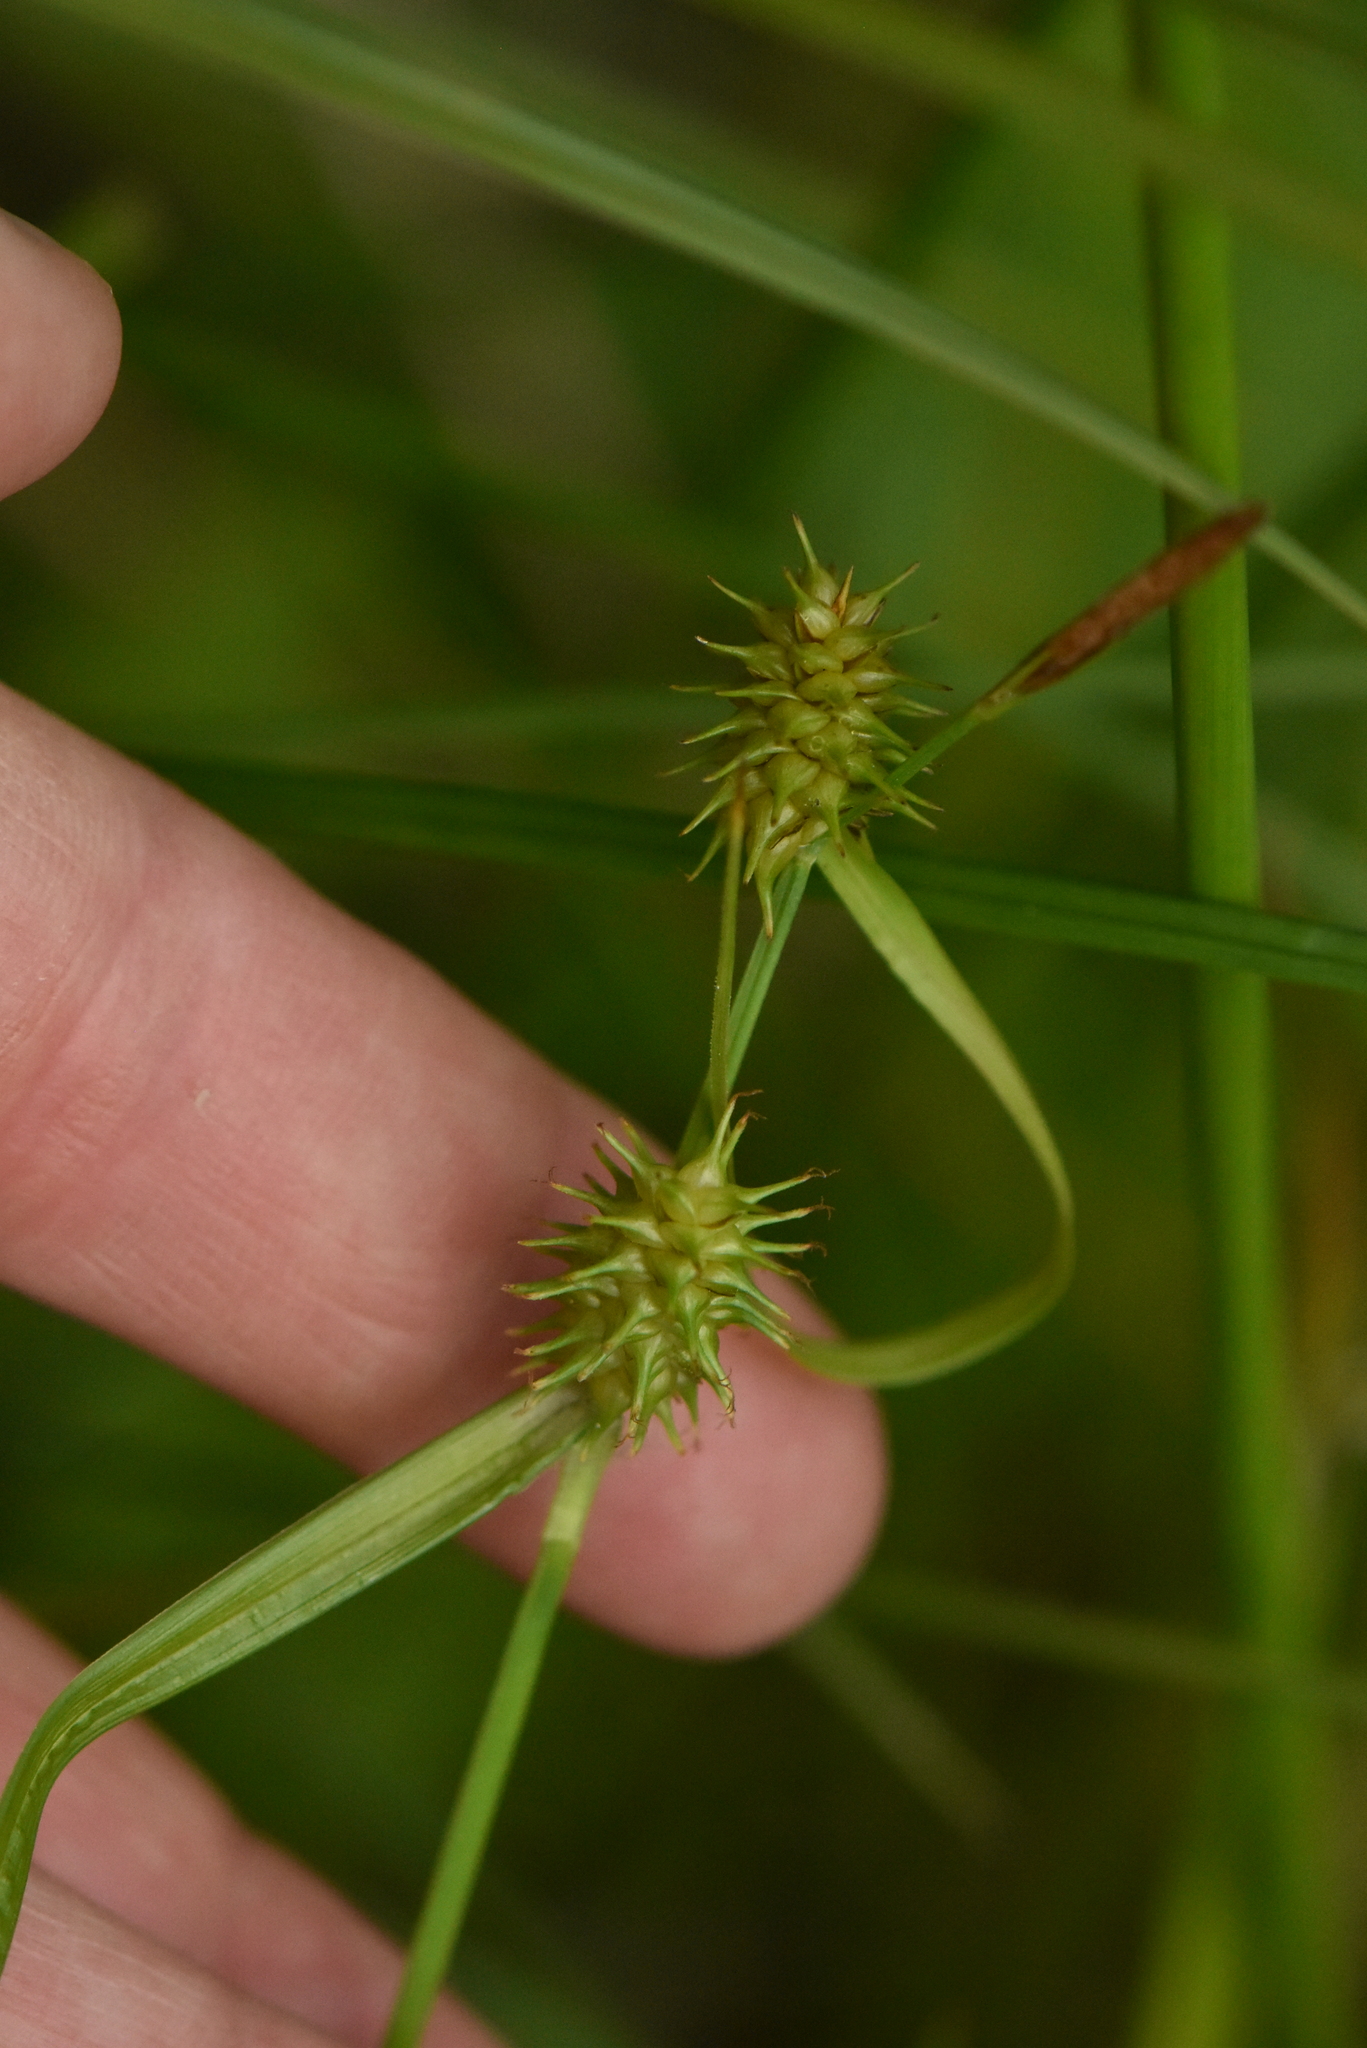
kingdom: Plantae
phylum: Tracheophyta
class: Liliopsida
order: Poales
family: Cyperaceae
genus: Carex
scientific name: Carex flava
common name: Large yellow-sedge
